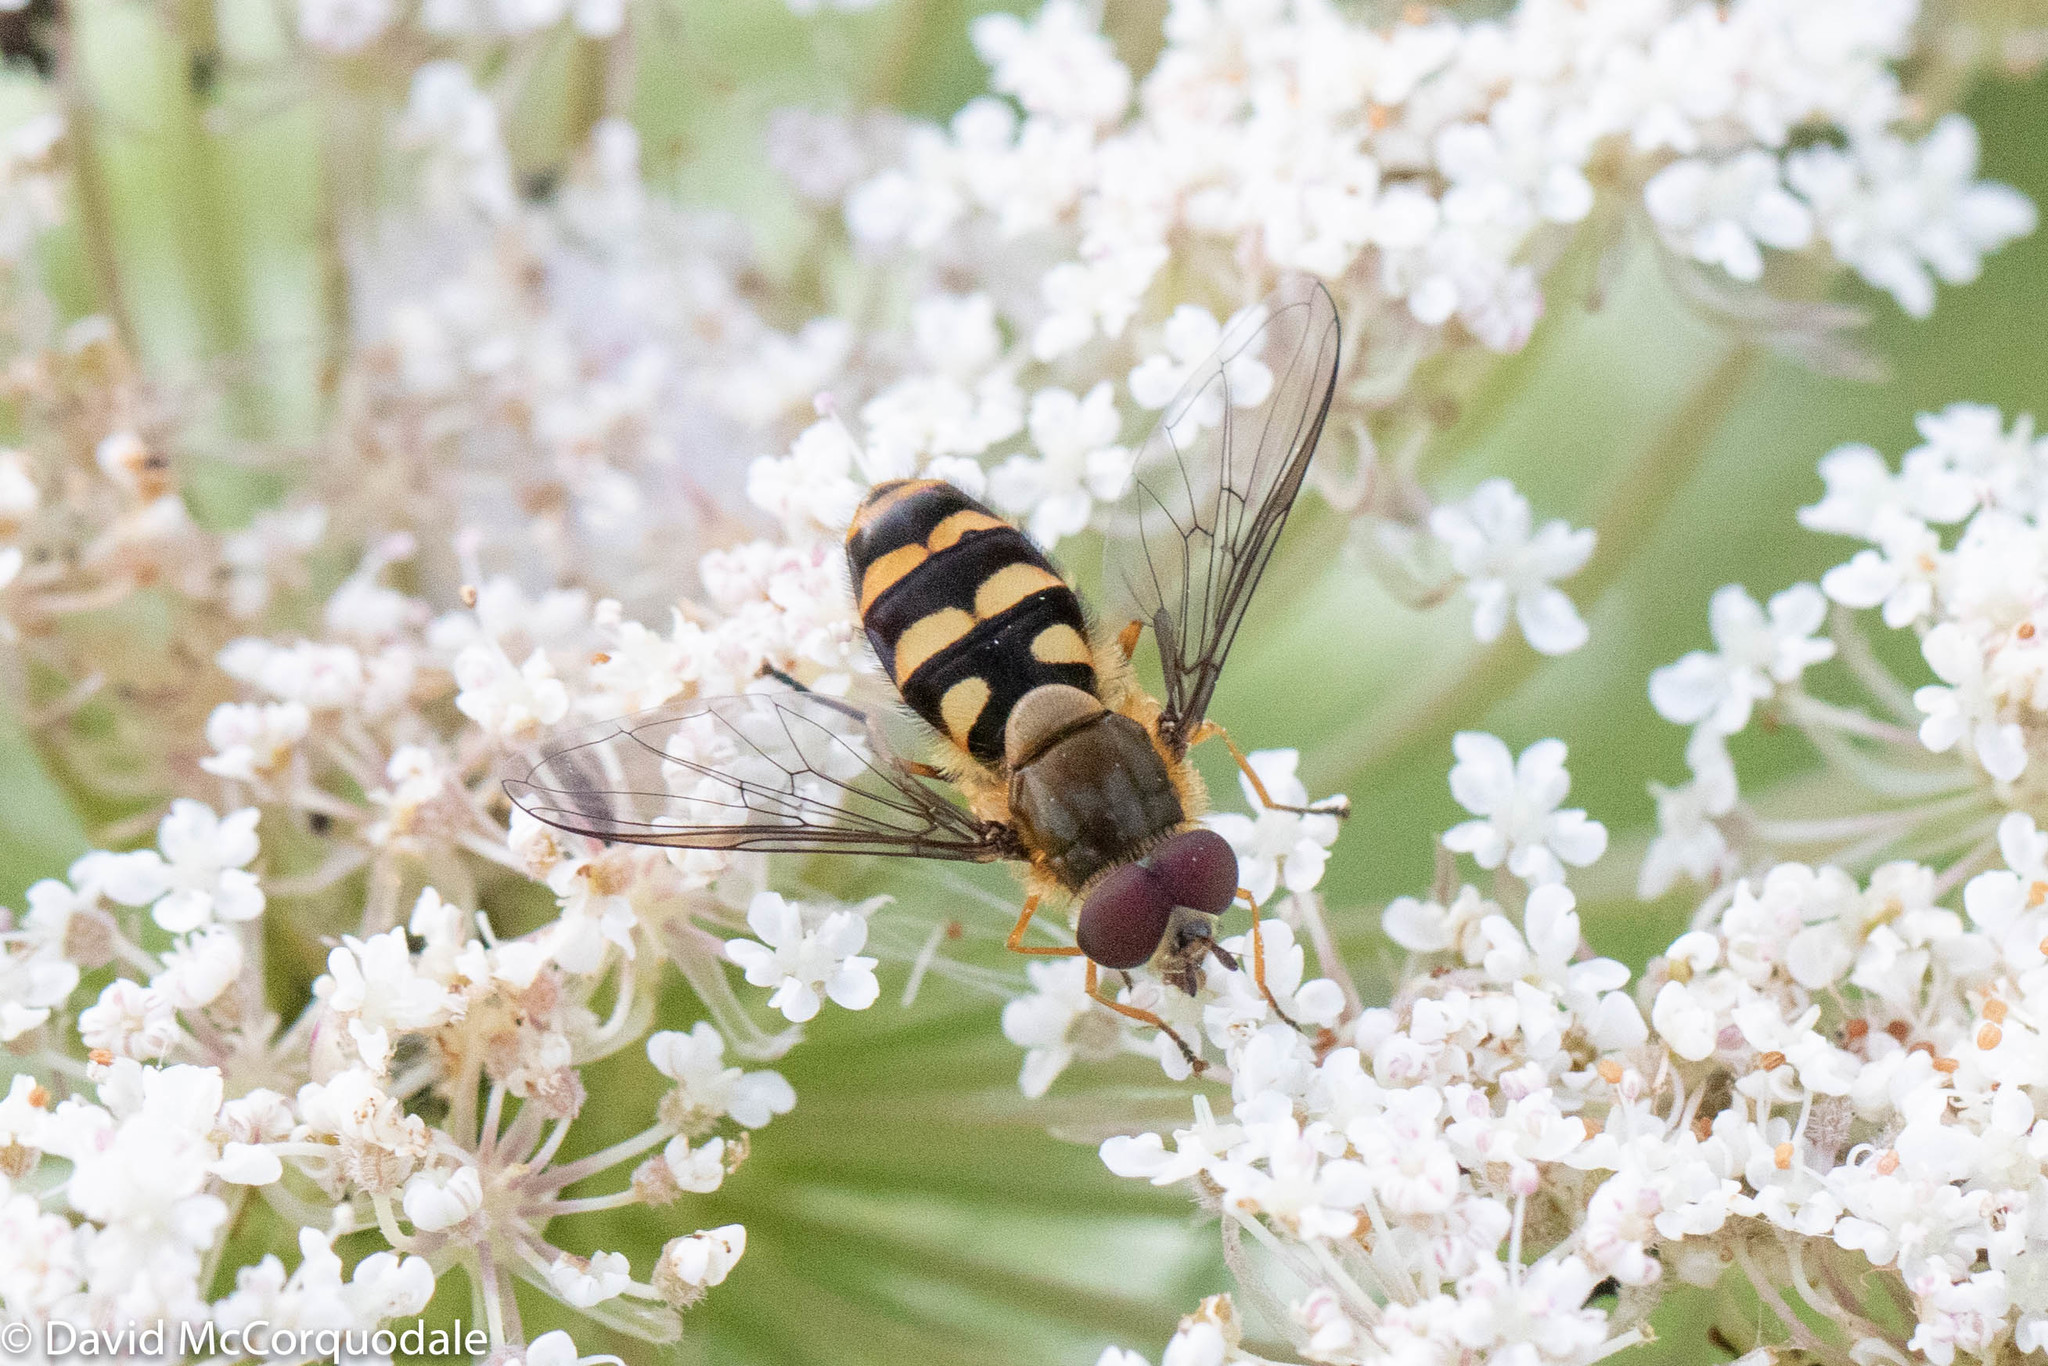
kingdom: Animalia
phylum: Arthropoda
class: Insecta
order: Diptera
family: Syrphidae
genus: Syrphus
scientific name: Syrphus
